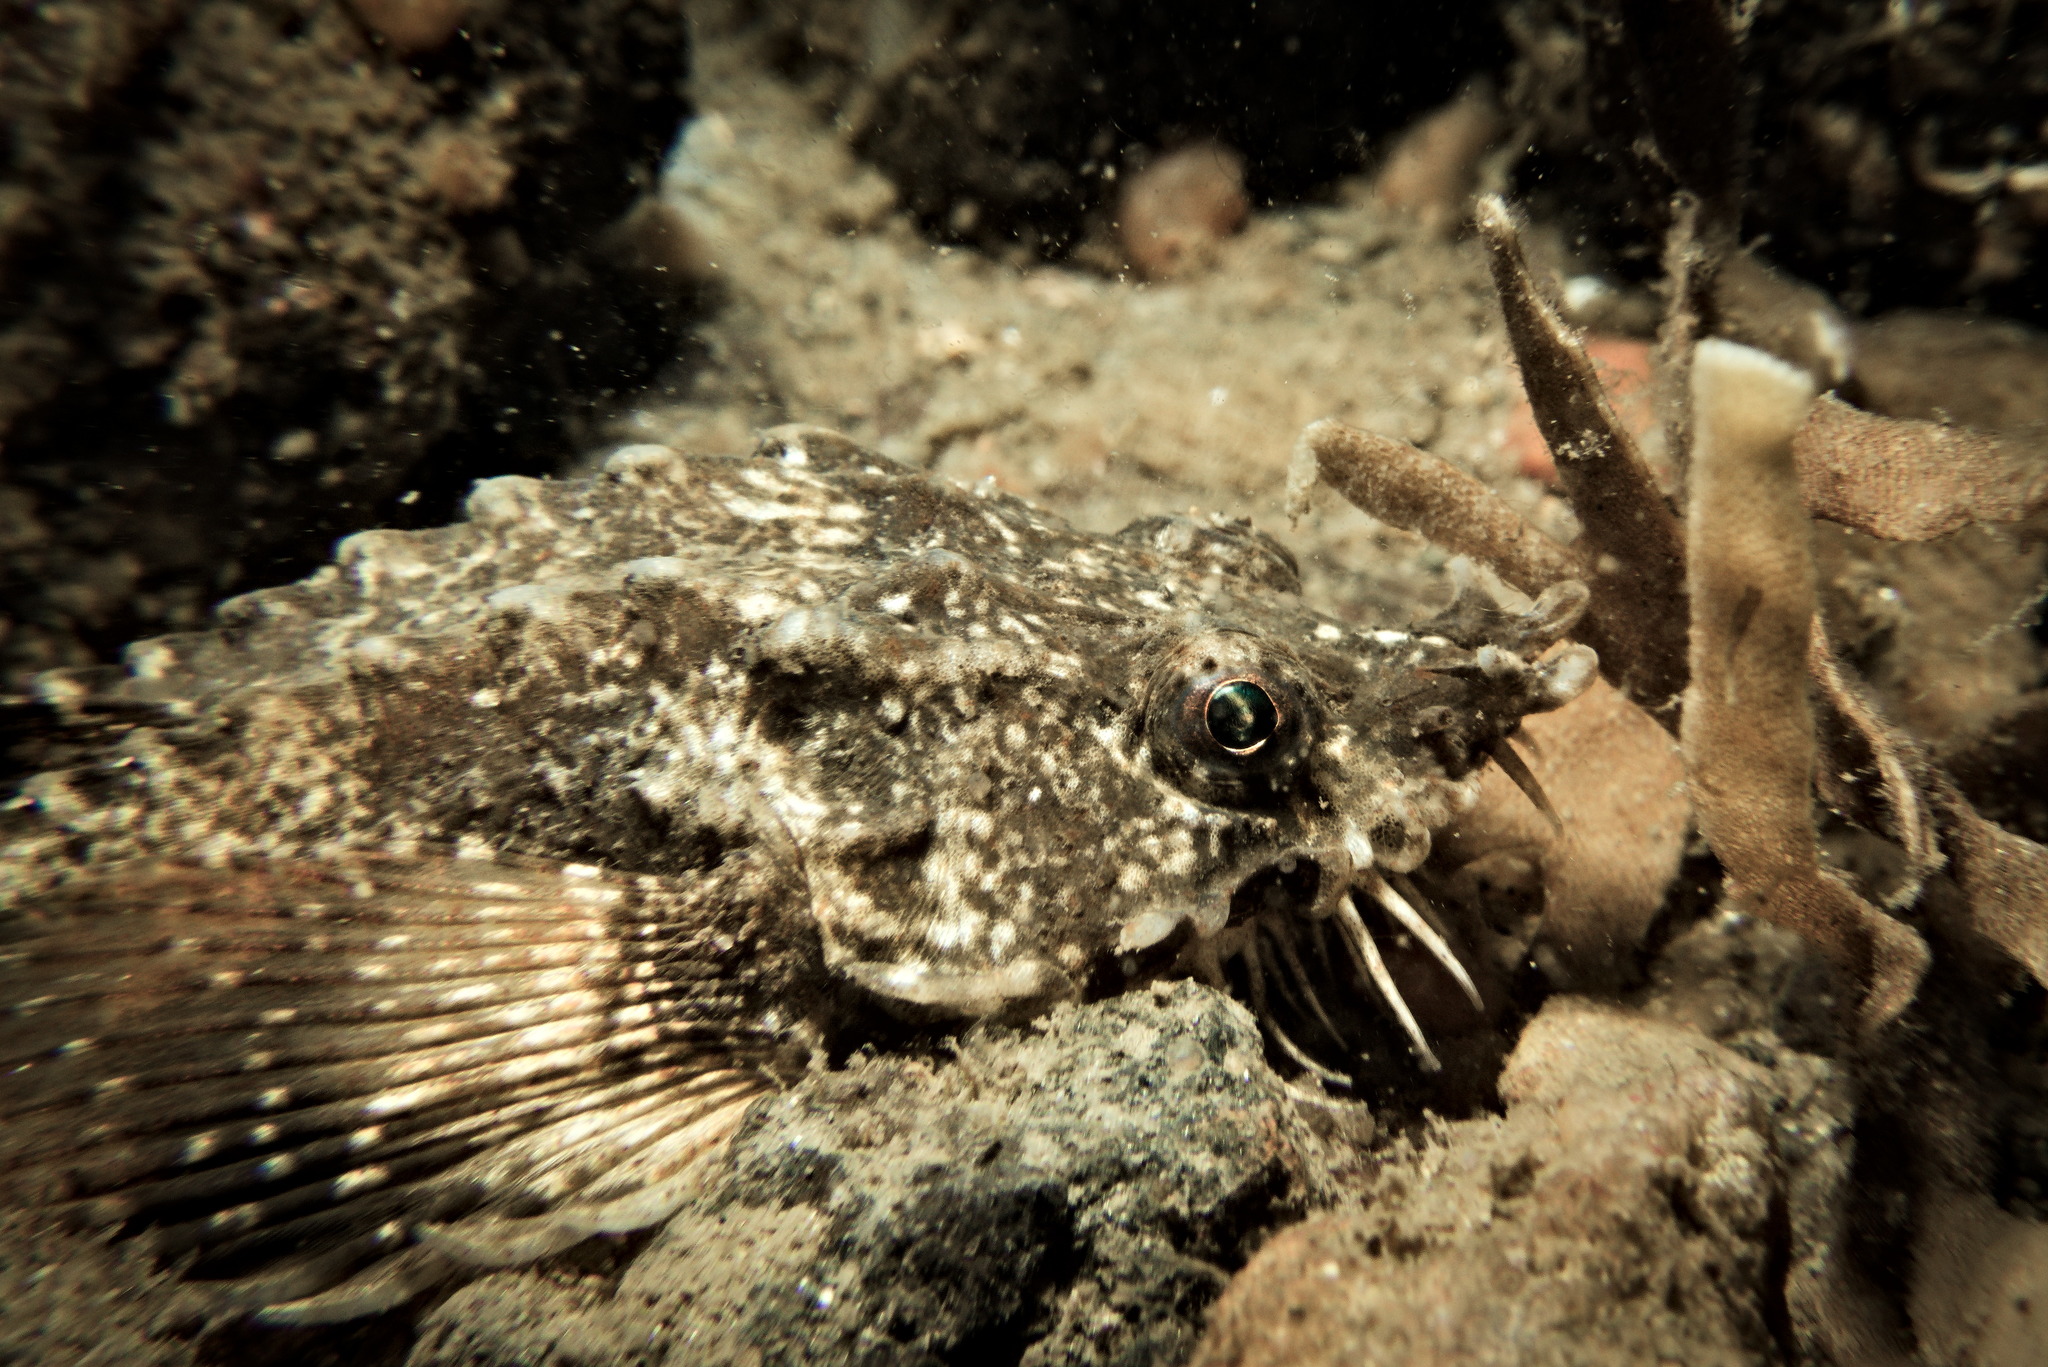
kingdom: Animalia
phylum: Chordata
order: Scorpaeniformes
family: Agonidae
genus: Agonus
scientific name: Agonus cataphractus
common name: Pogge
